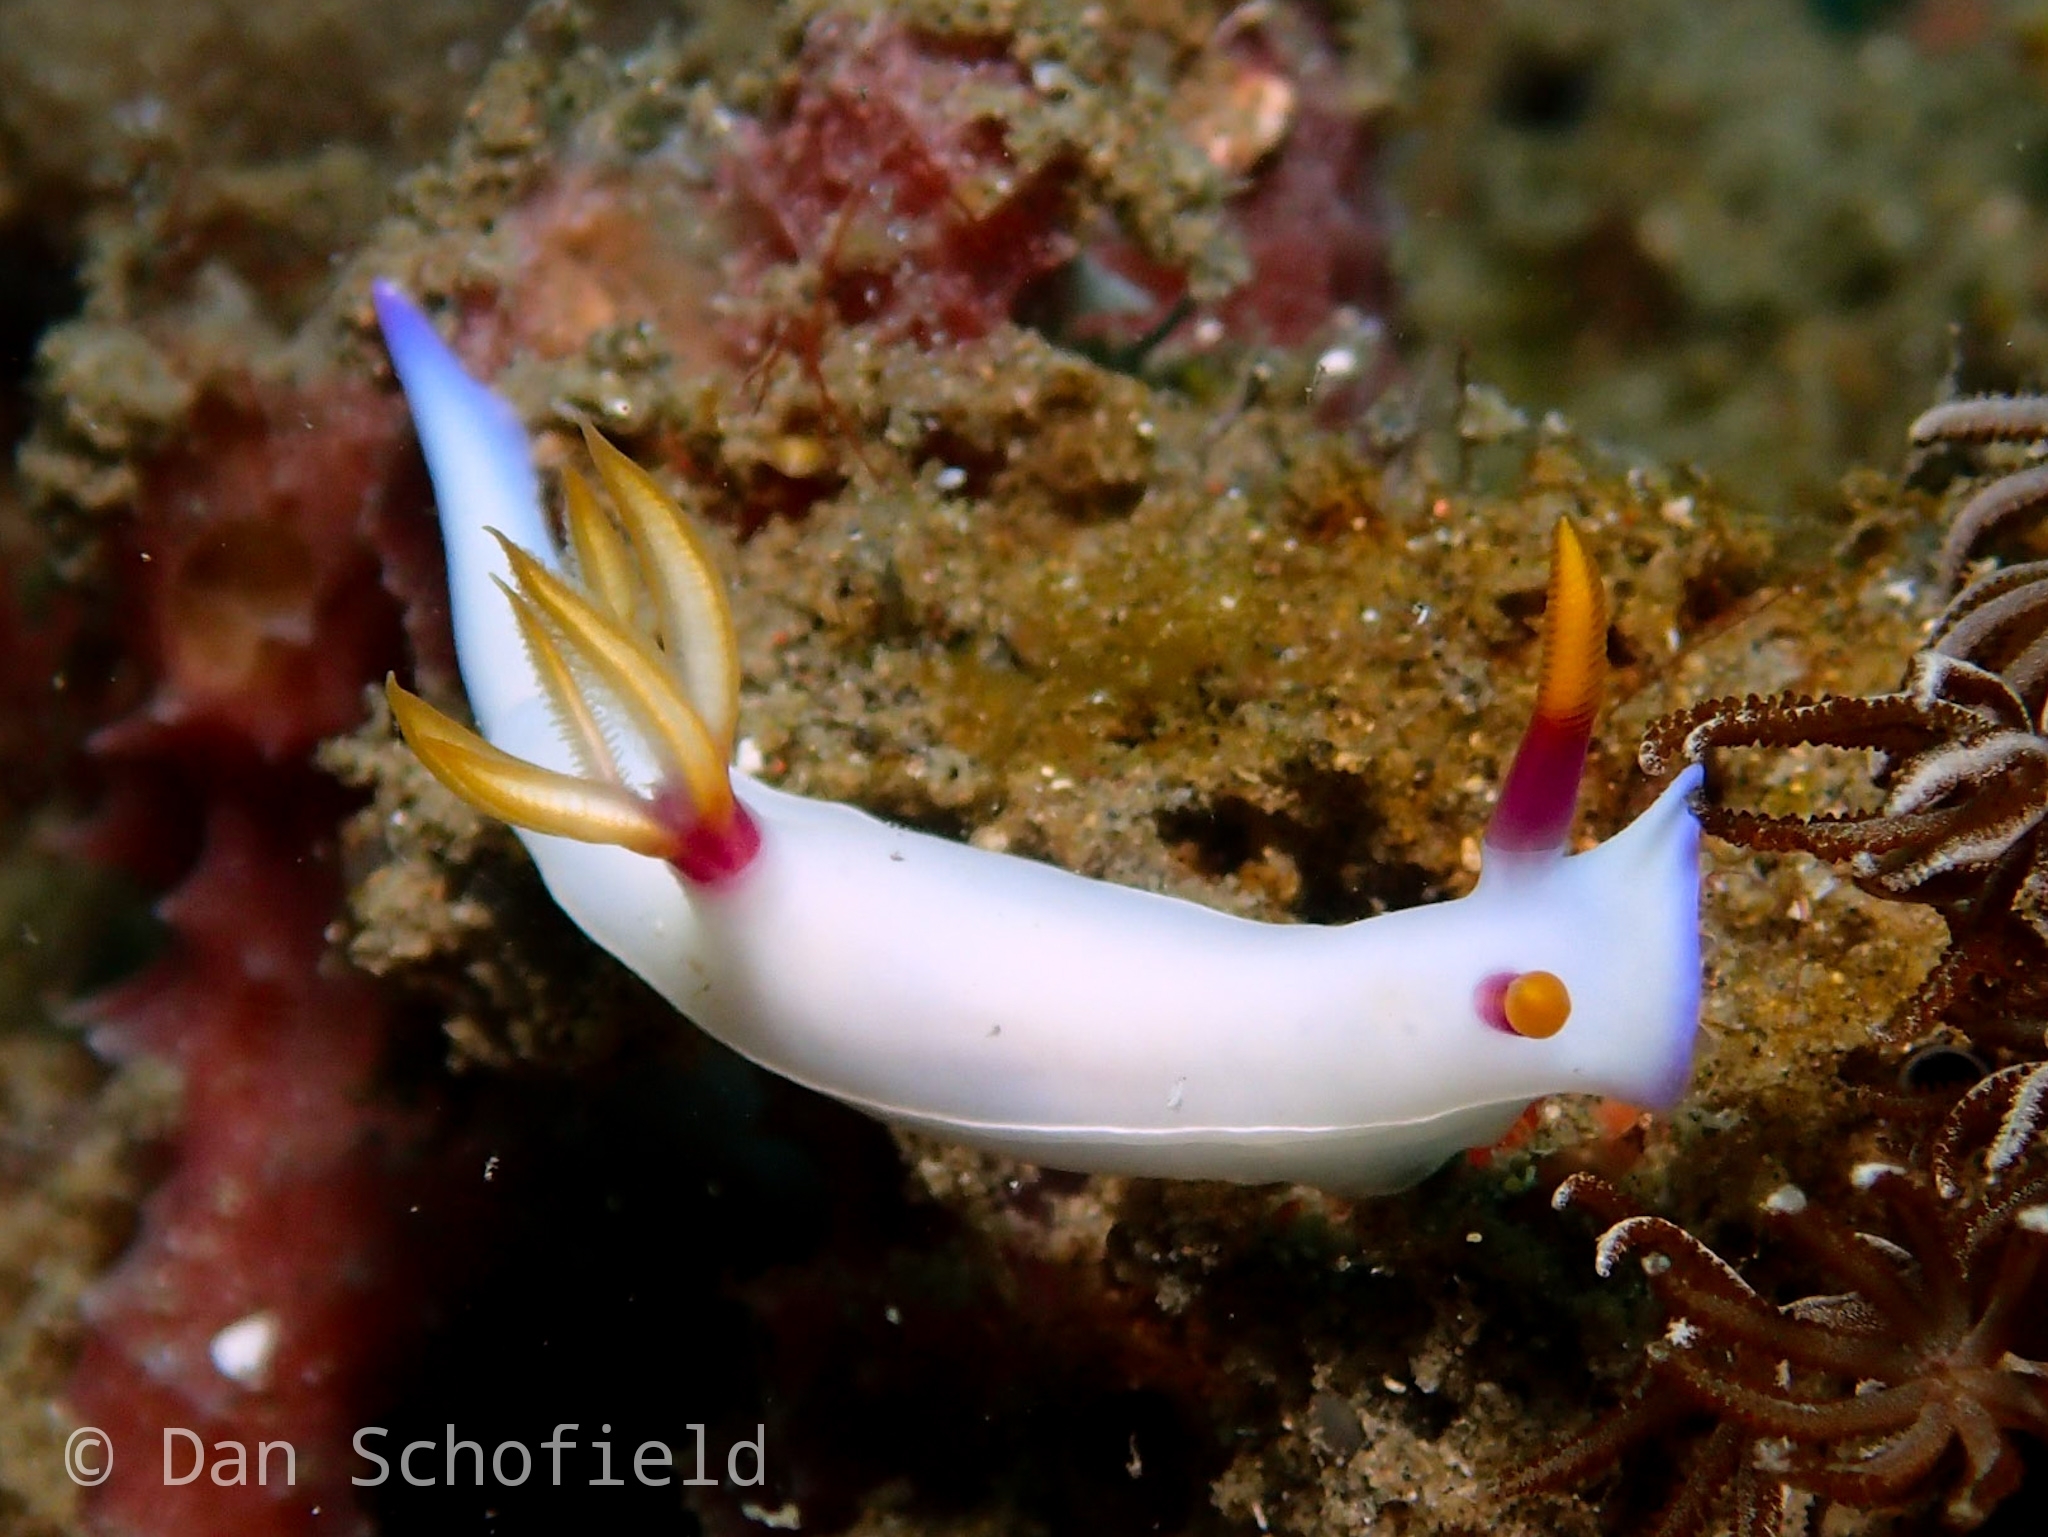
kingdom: Animalia
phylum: Mollusca
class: Gastropoda
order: Nudibranchia
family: Chromodorididae
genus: Hypselodoris
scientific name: Hypselodoris bullockii
